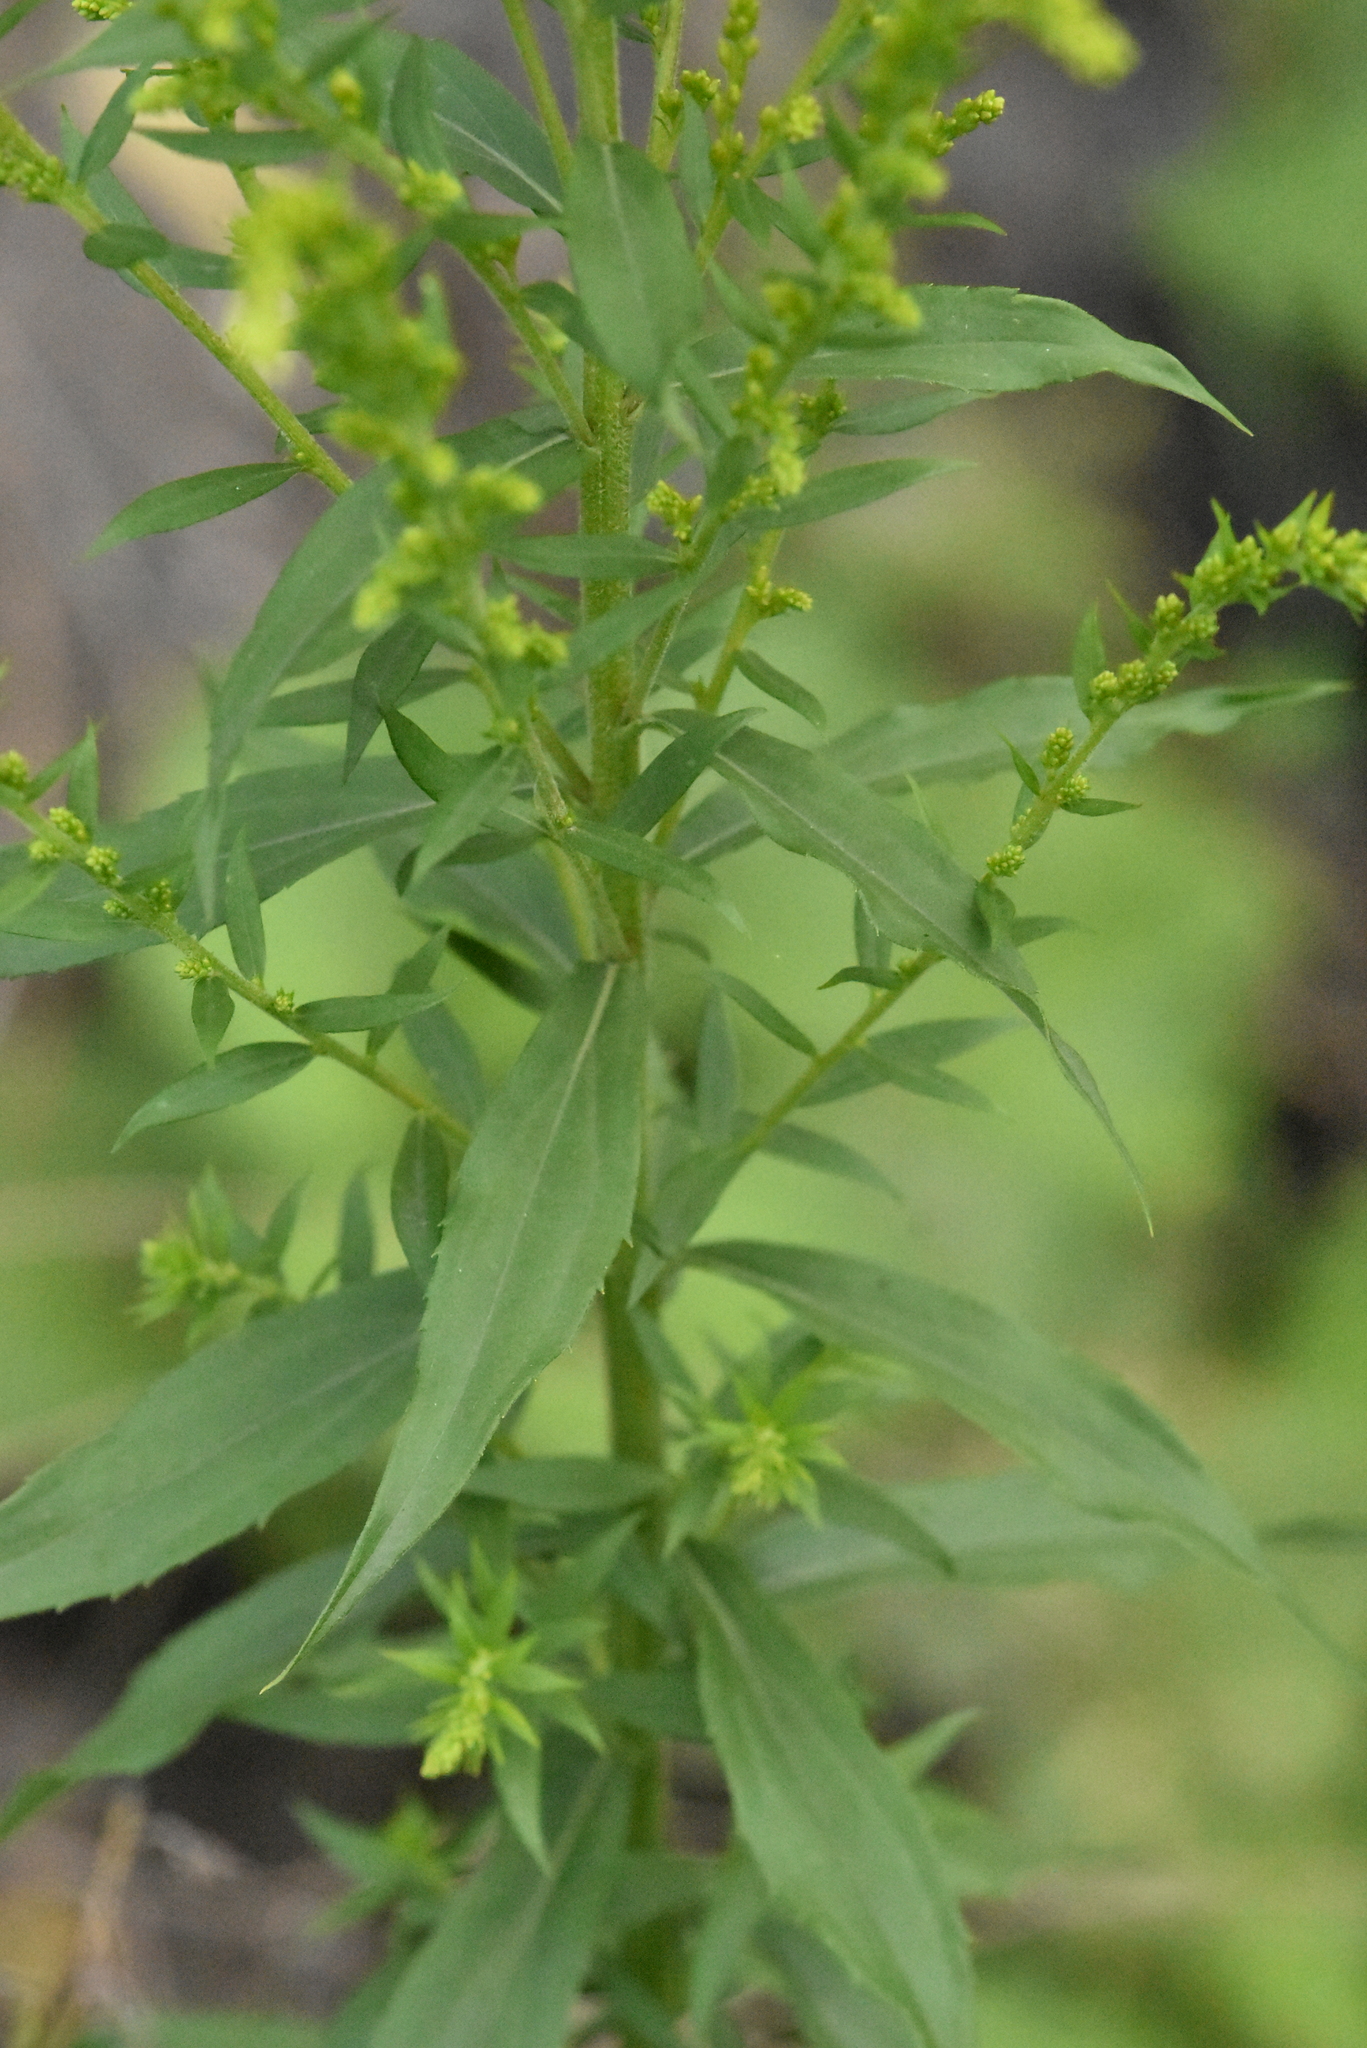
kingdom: Plantae
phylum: Tracheophyta
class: Magnoliopsida
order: Asterales
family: Asteraceae
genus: Solidago
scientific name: Solidago canadensis
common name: Canada goldenrod
